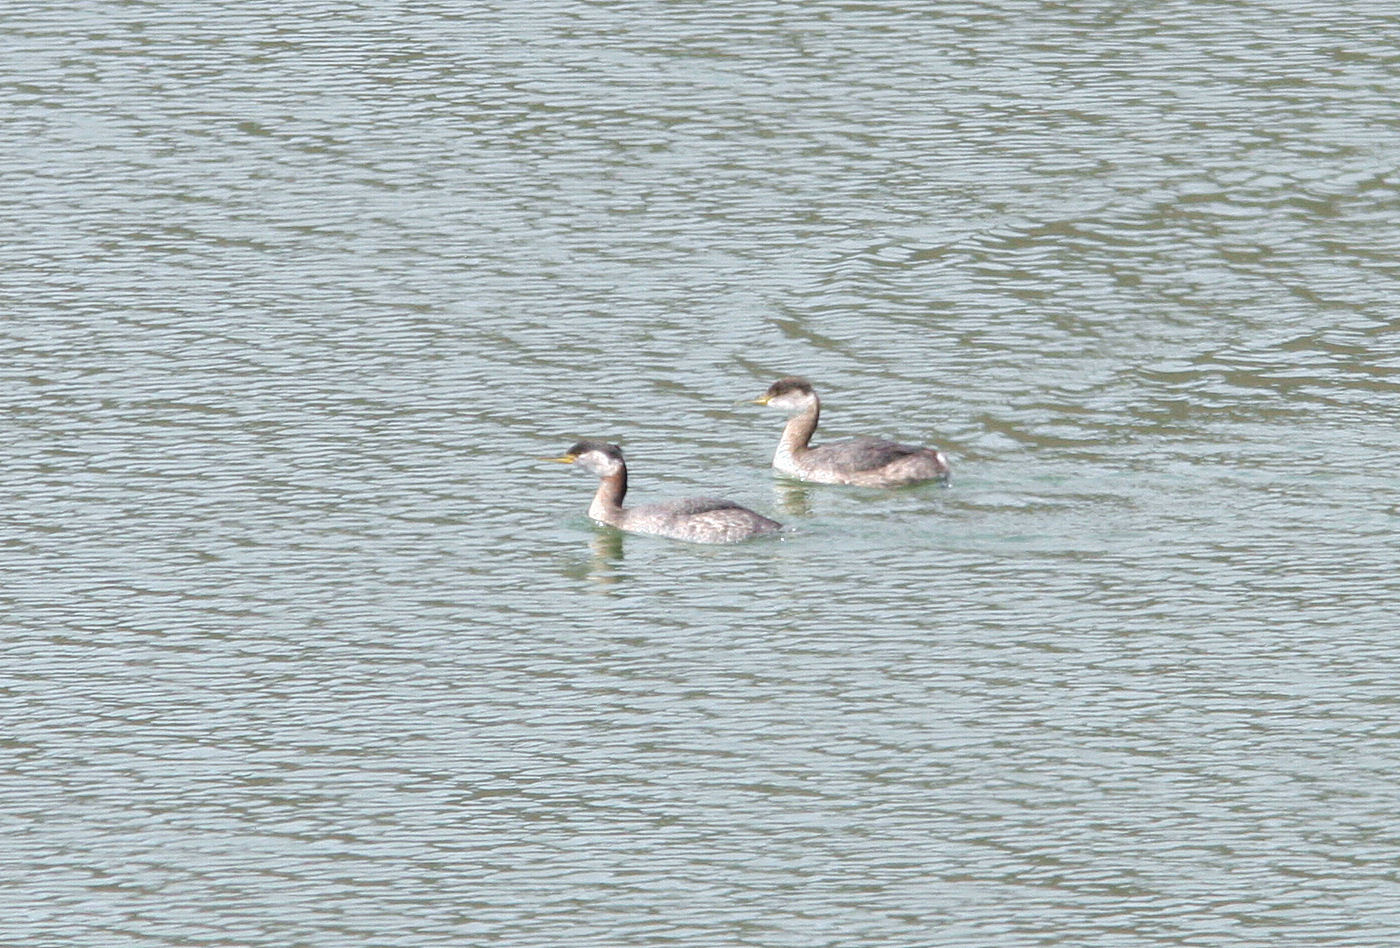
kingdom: Animalia
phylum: Chordata
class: Aves
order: Podicipediformes
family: Podicipedidae
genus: Podiceps
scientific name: Podiceps grisegena
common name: Red-necked grebe
